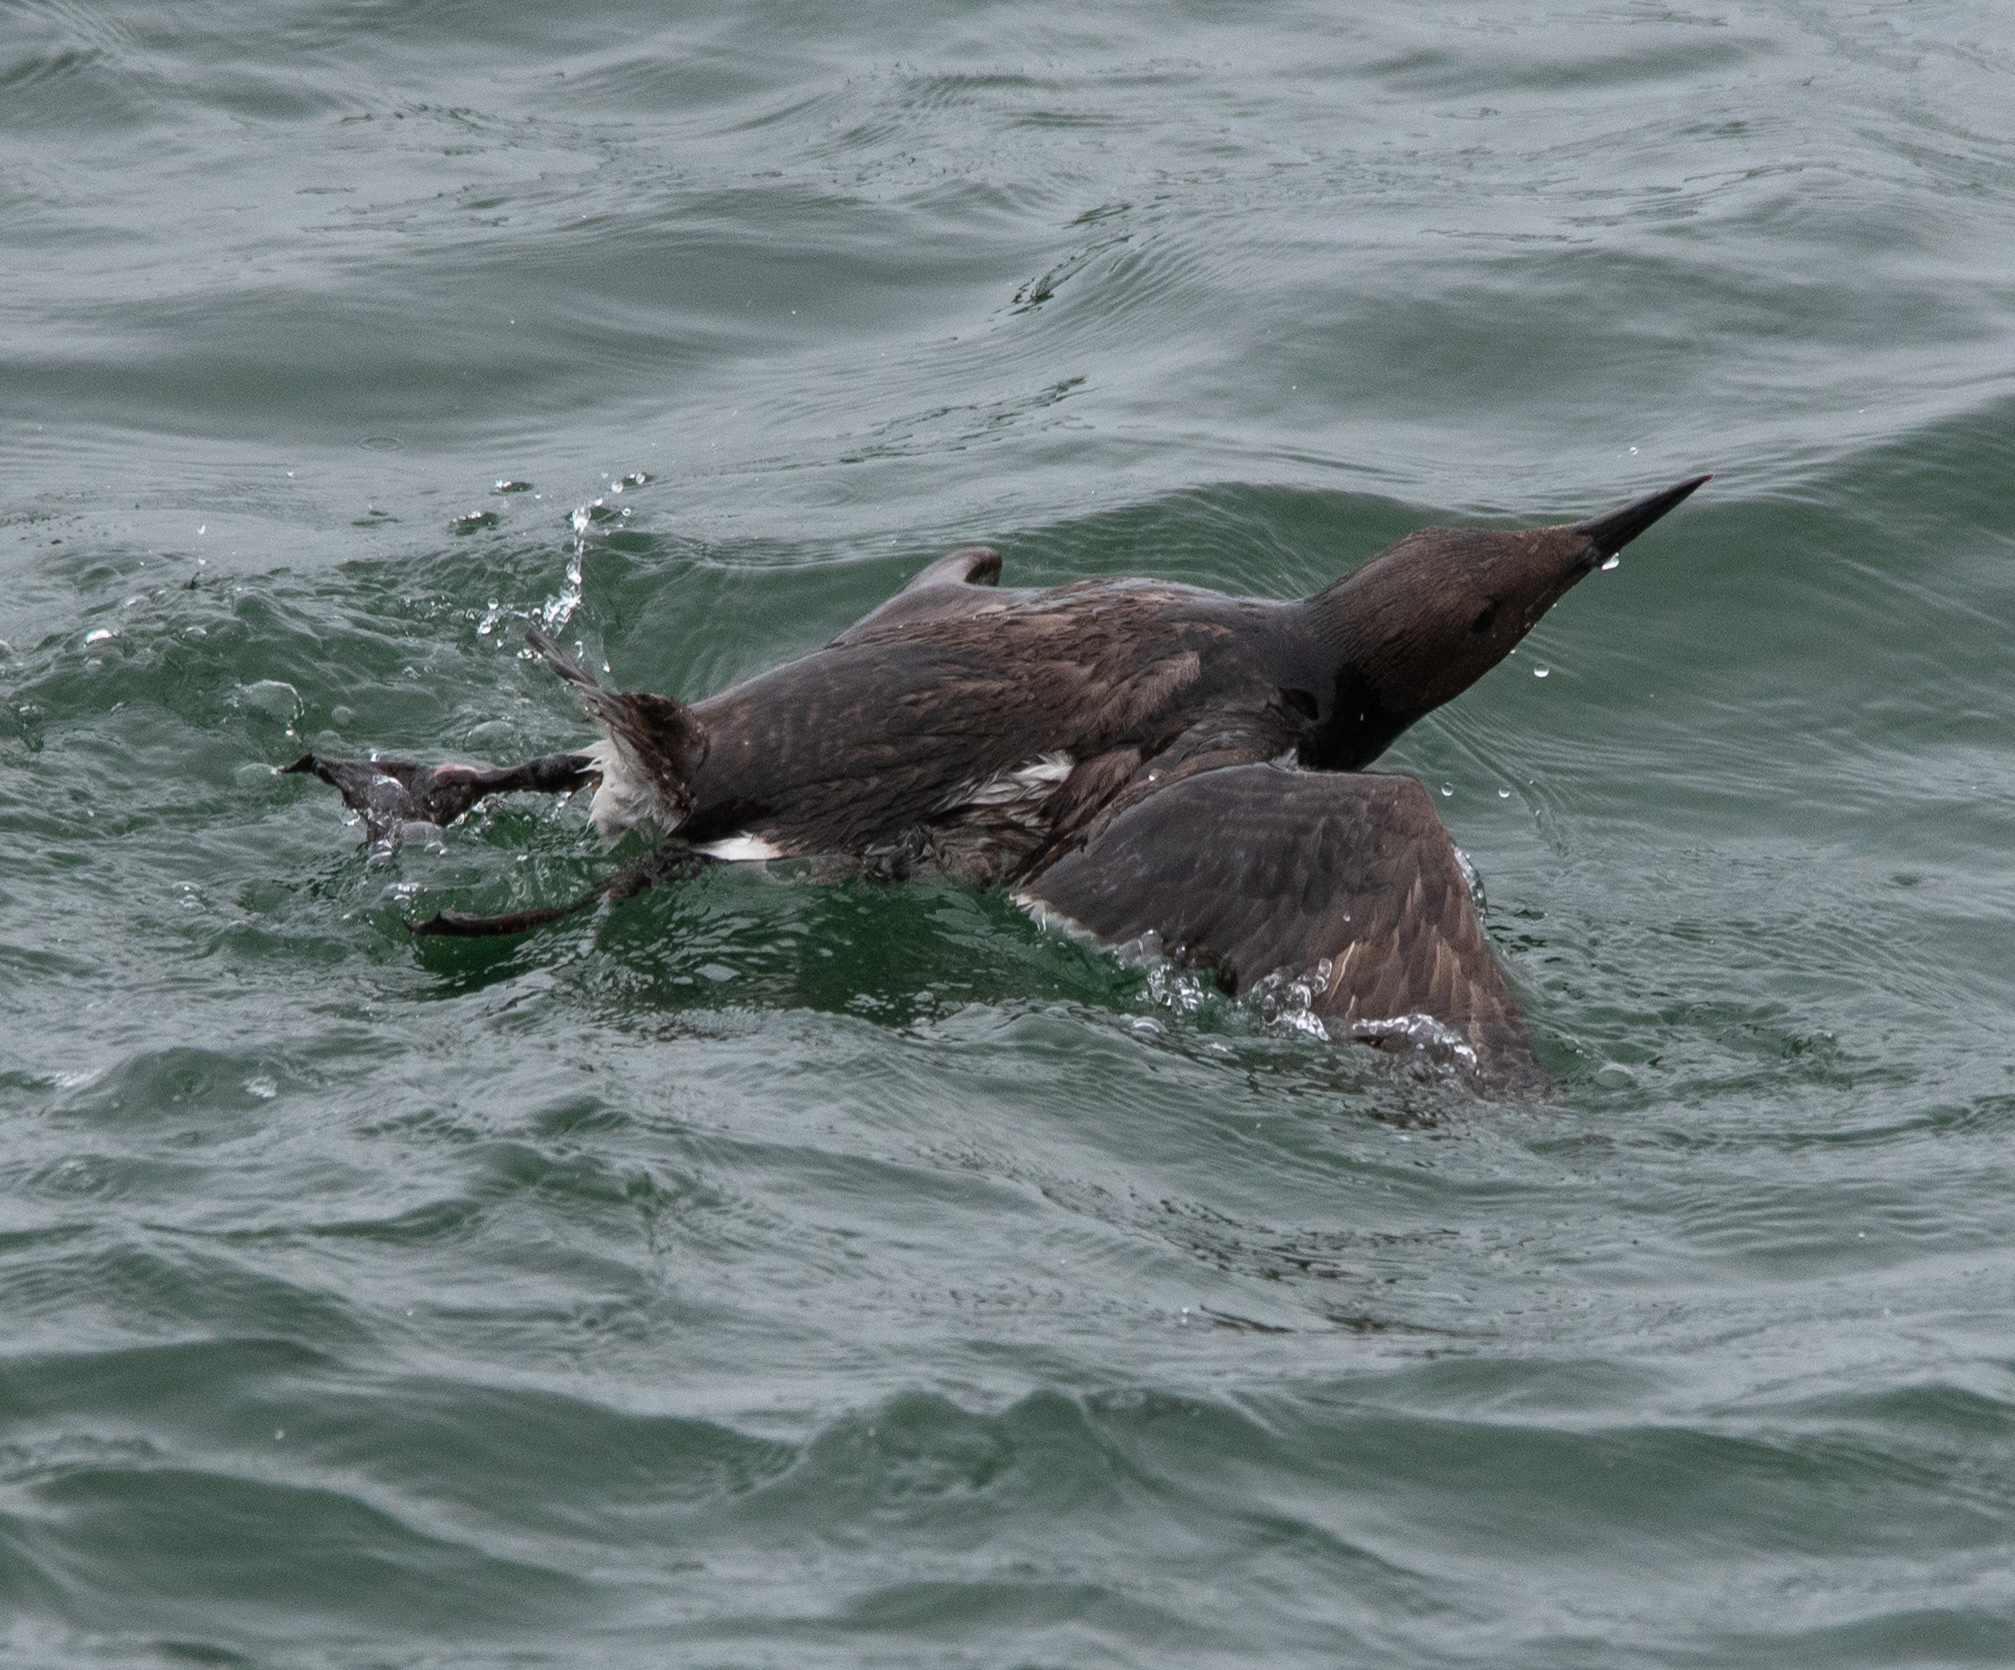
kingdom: Animalia
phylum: Chordata
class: Aves
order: Charadriiformes
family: Alcidae
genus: Uria
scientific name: Uria aalge
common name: Common murre
